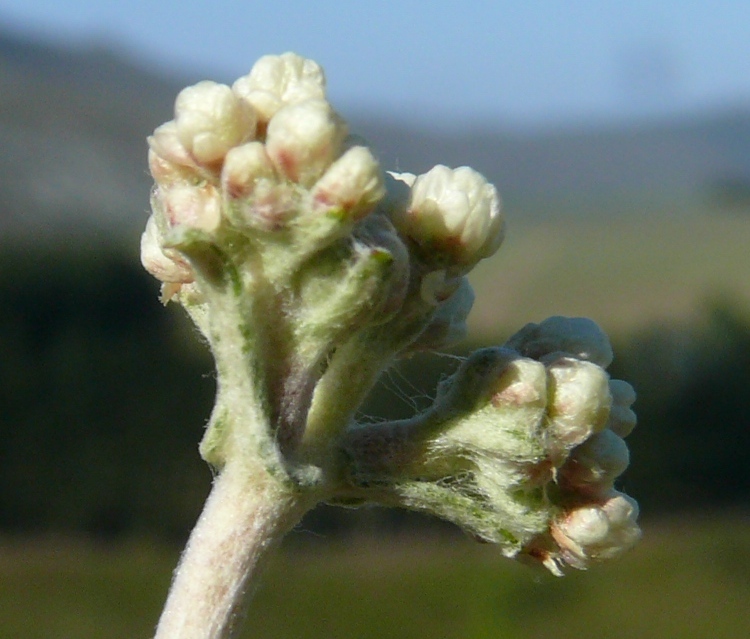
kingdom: Plantae
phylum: Tracheophyta
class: Magnoliopsida
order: Asterales
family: Asteraceae
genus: Helichrysum
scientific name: Helichrysum patulum
